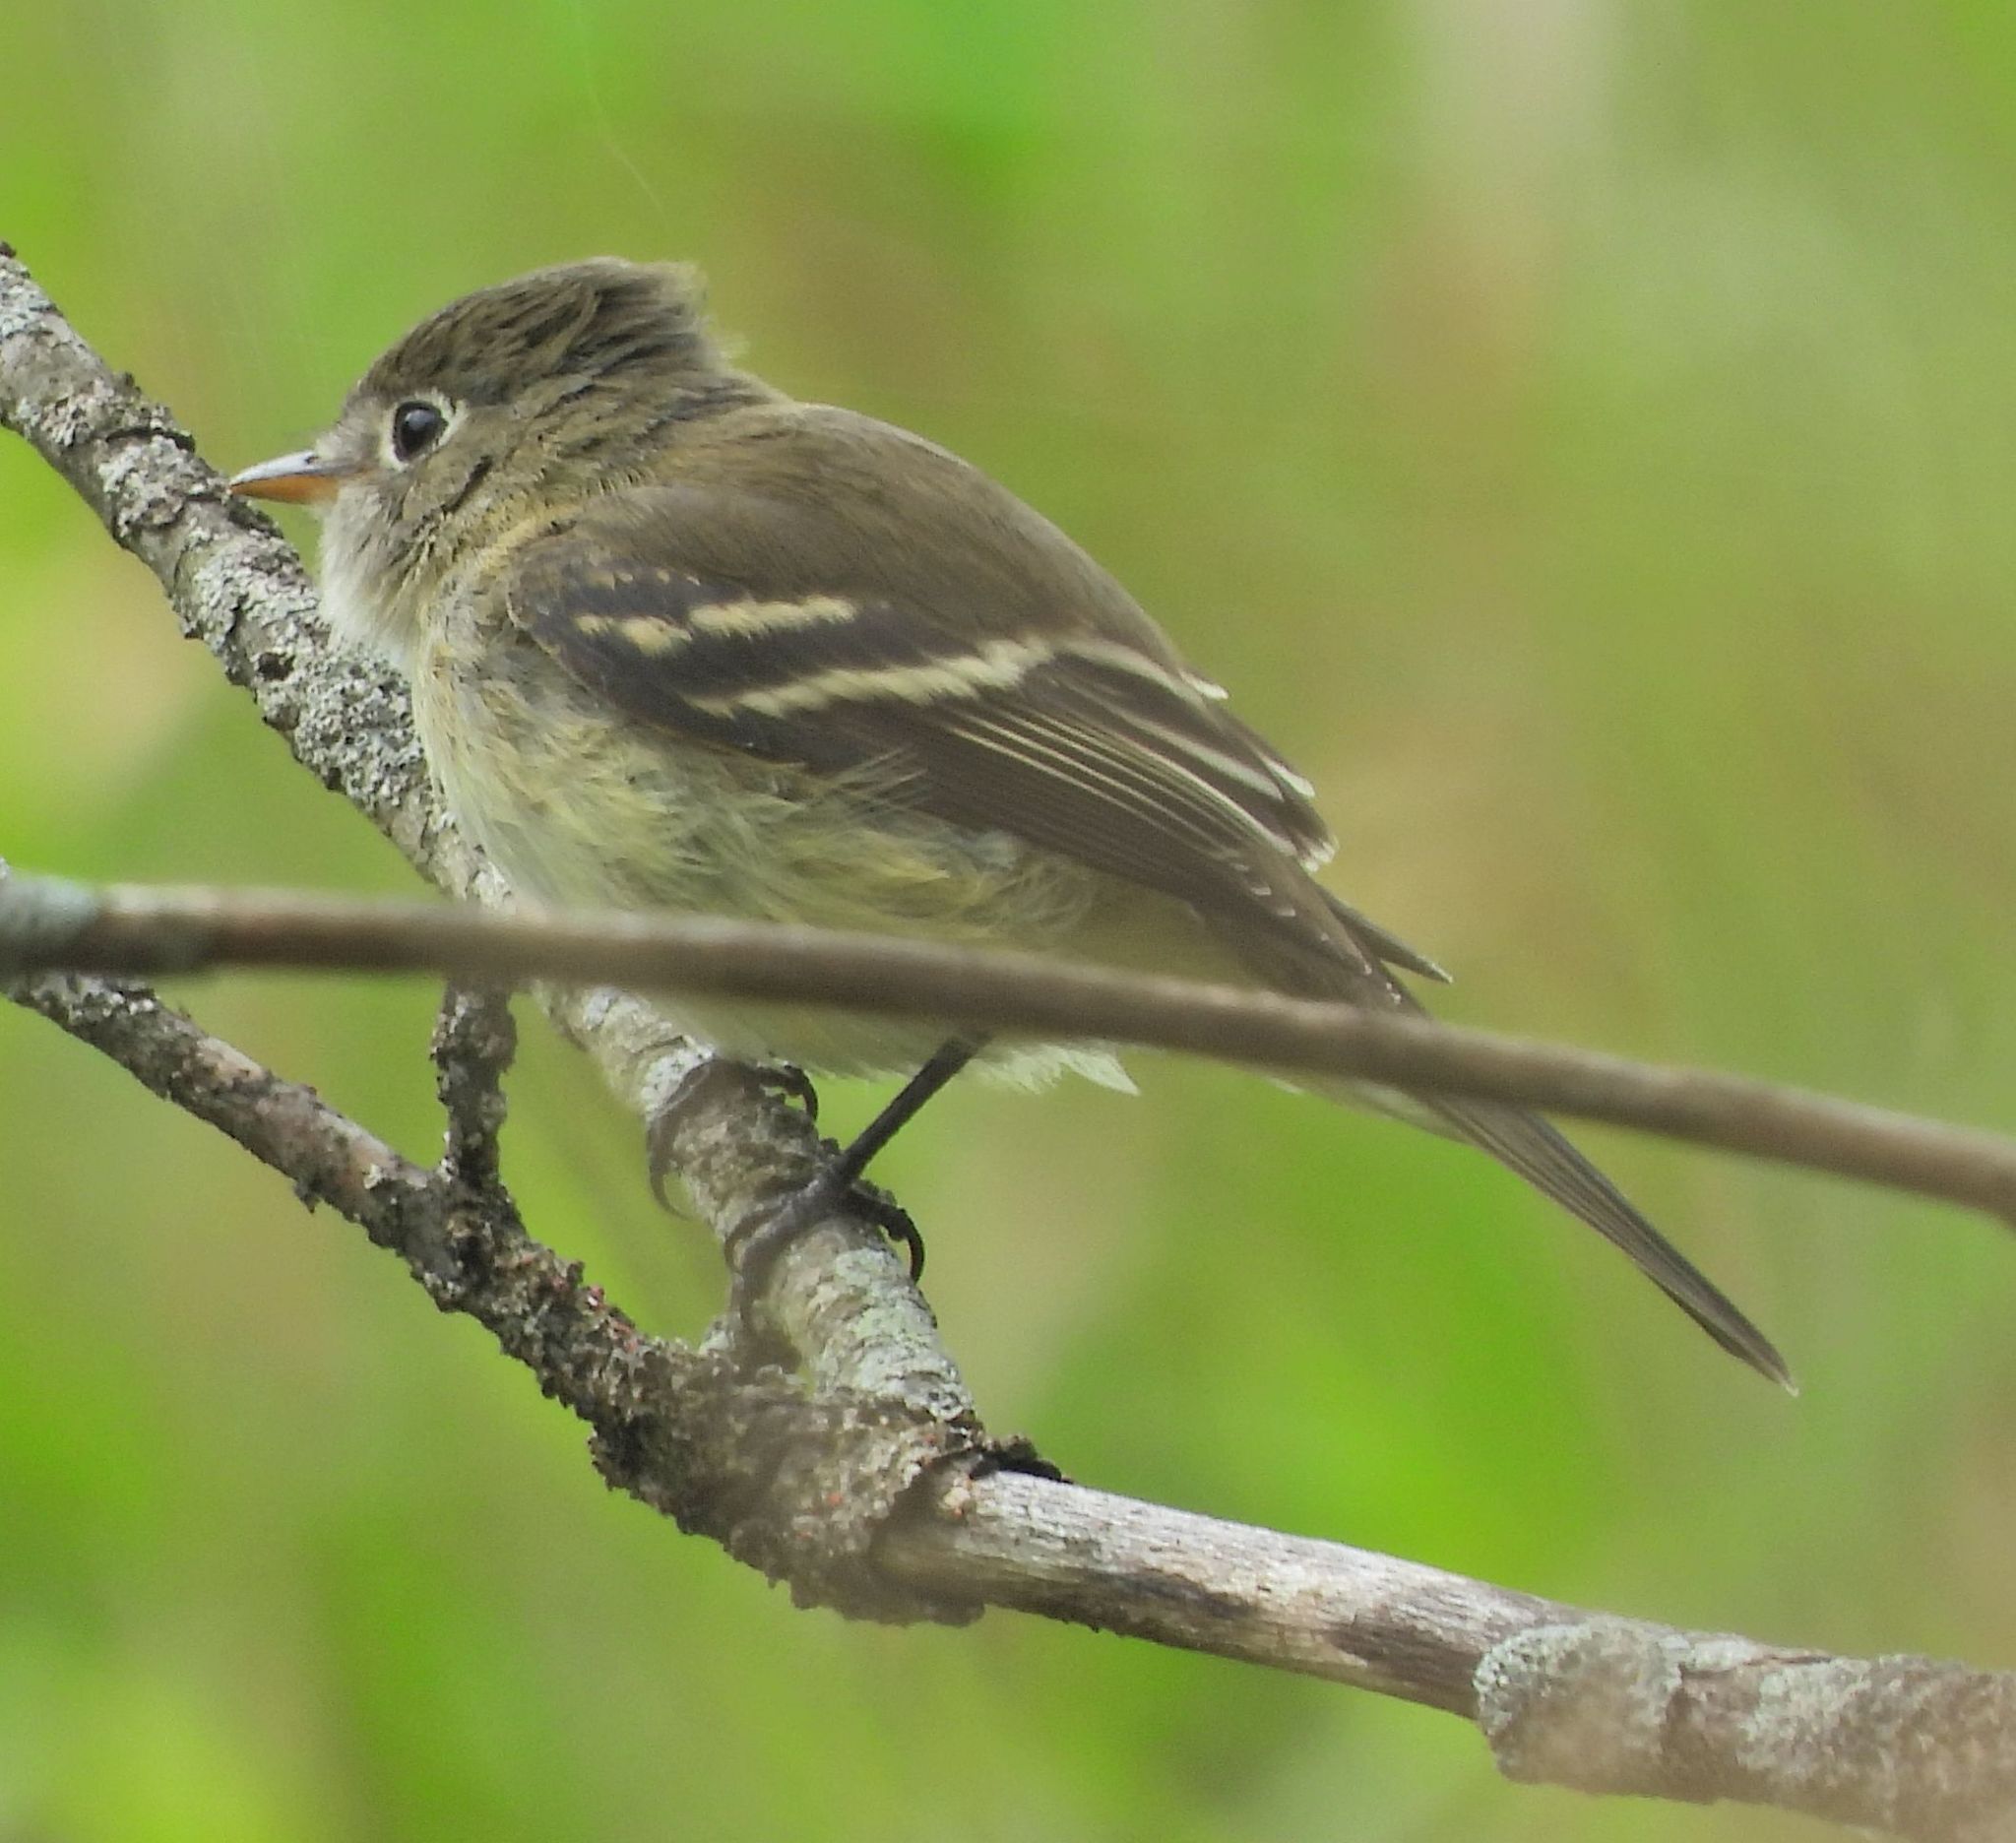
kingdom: Animalia
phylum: Chordata
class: Aves
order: Passeriformes
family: Tyrannidae
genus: Empidonax
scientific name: Empidonax flaviventris
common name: Yellow-bellied flycatcher
